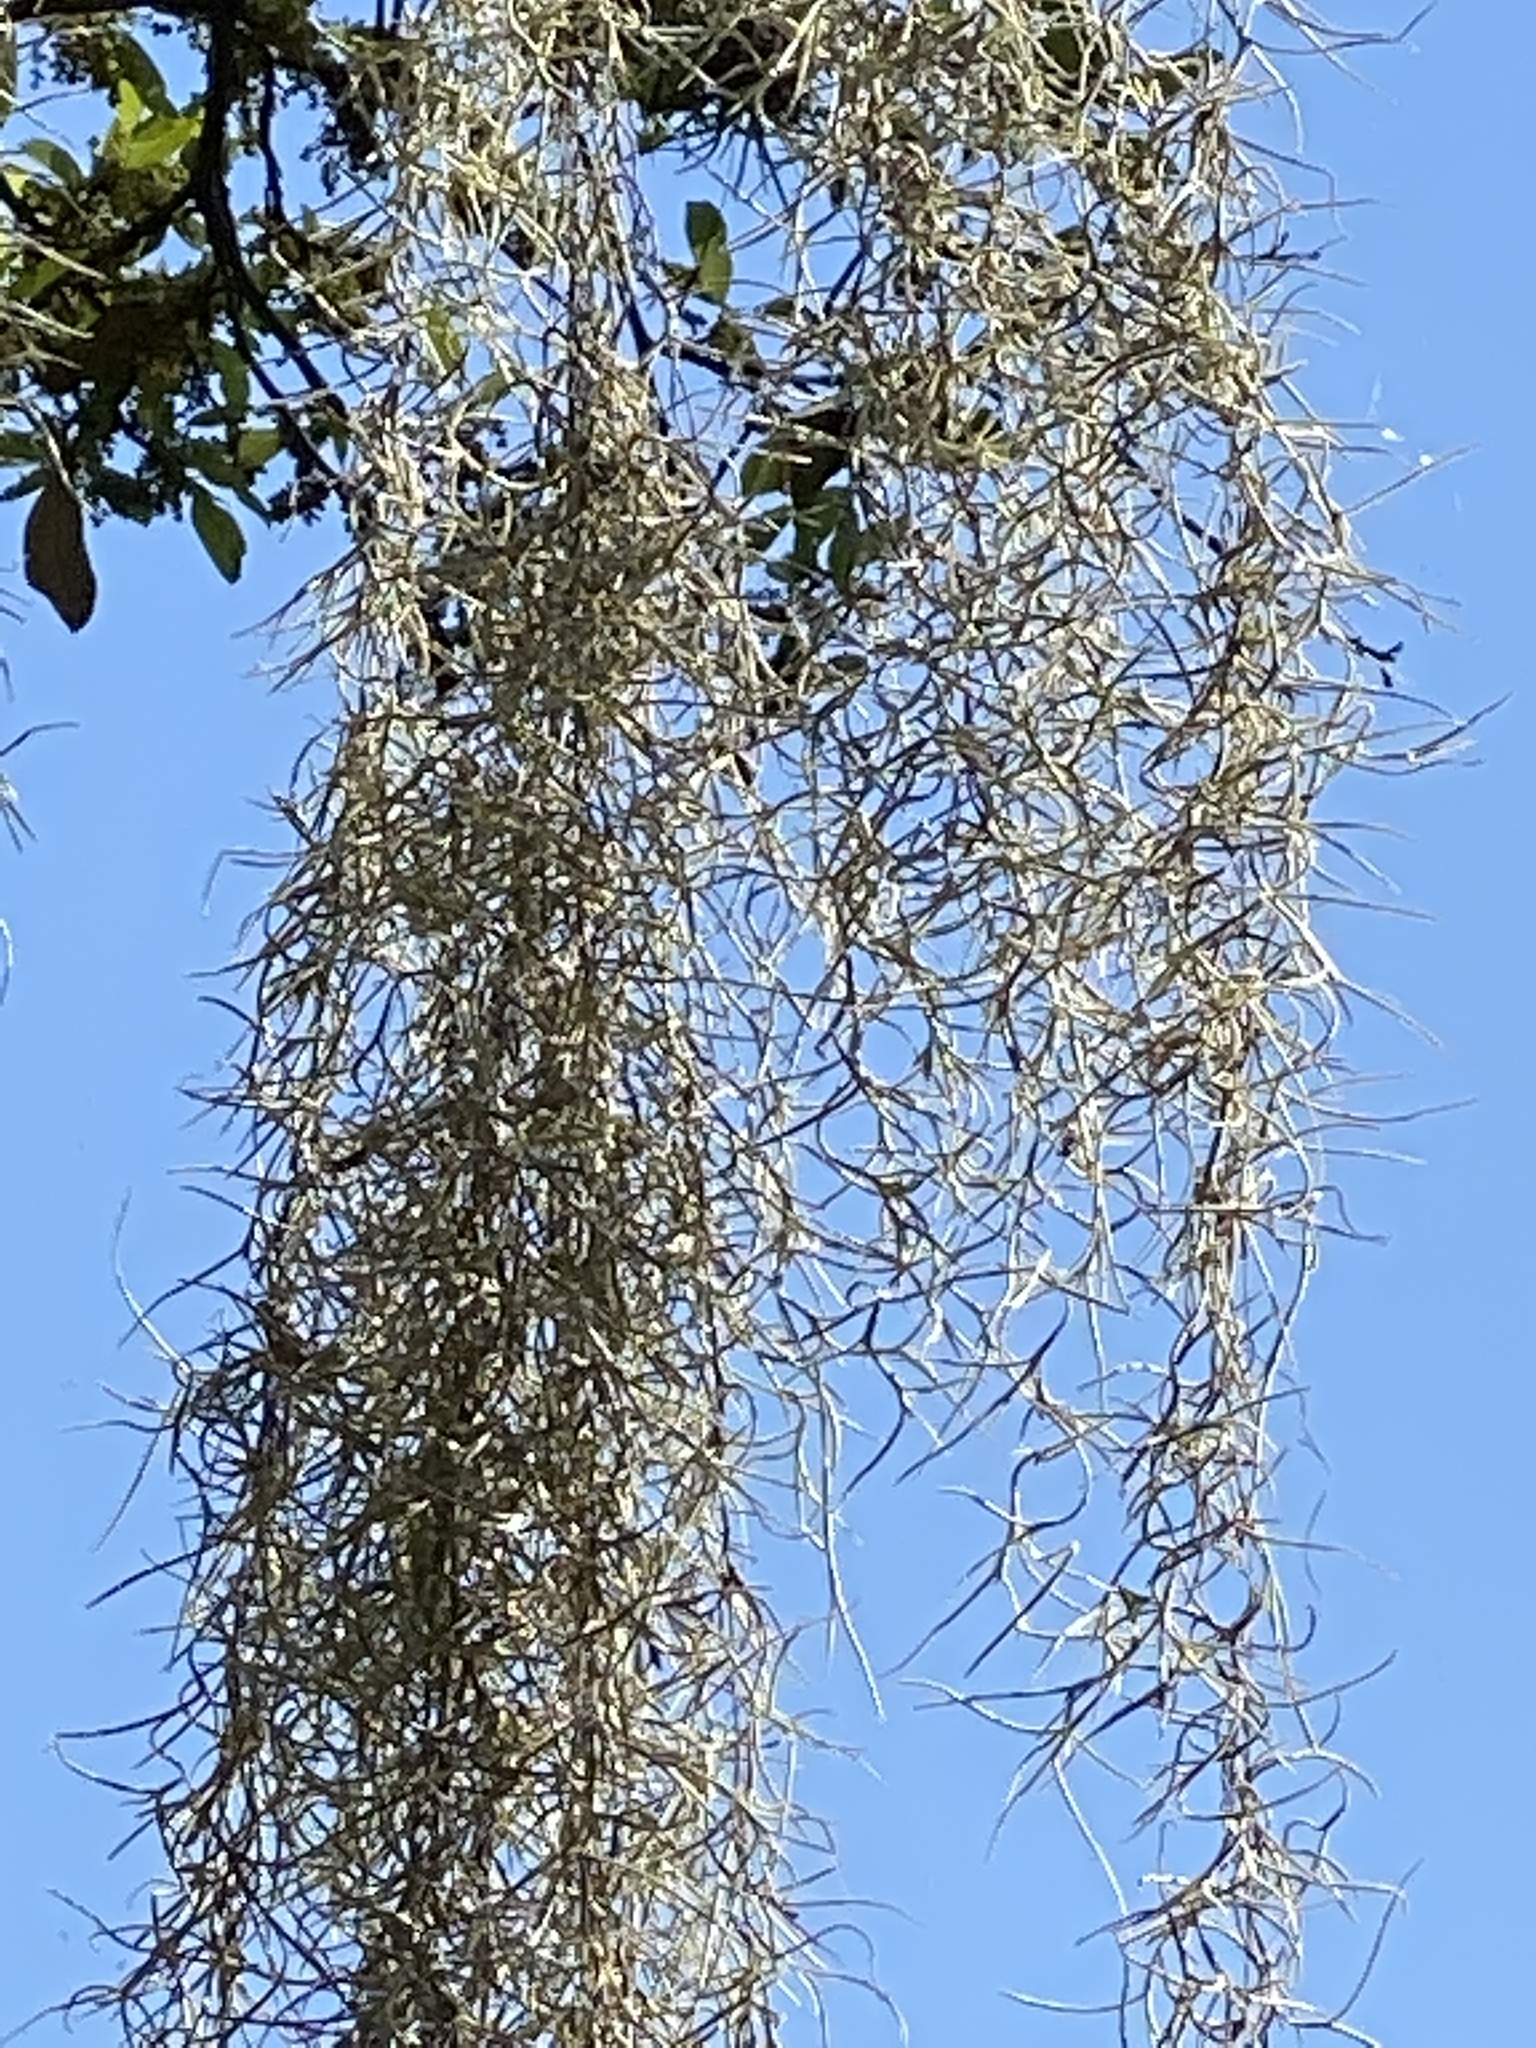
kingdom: Plantae
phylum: Tracheophyta
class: Liliopsida
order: Poales
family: Bromeliaceae
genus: Tillandsia
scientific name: Tillandsia usneoides
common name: Spanish moss
